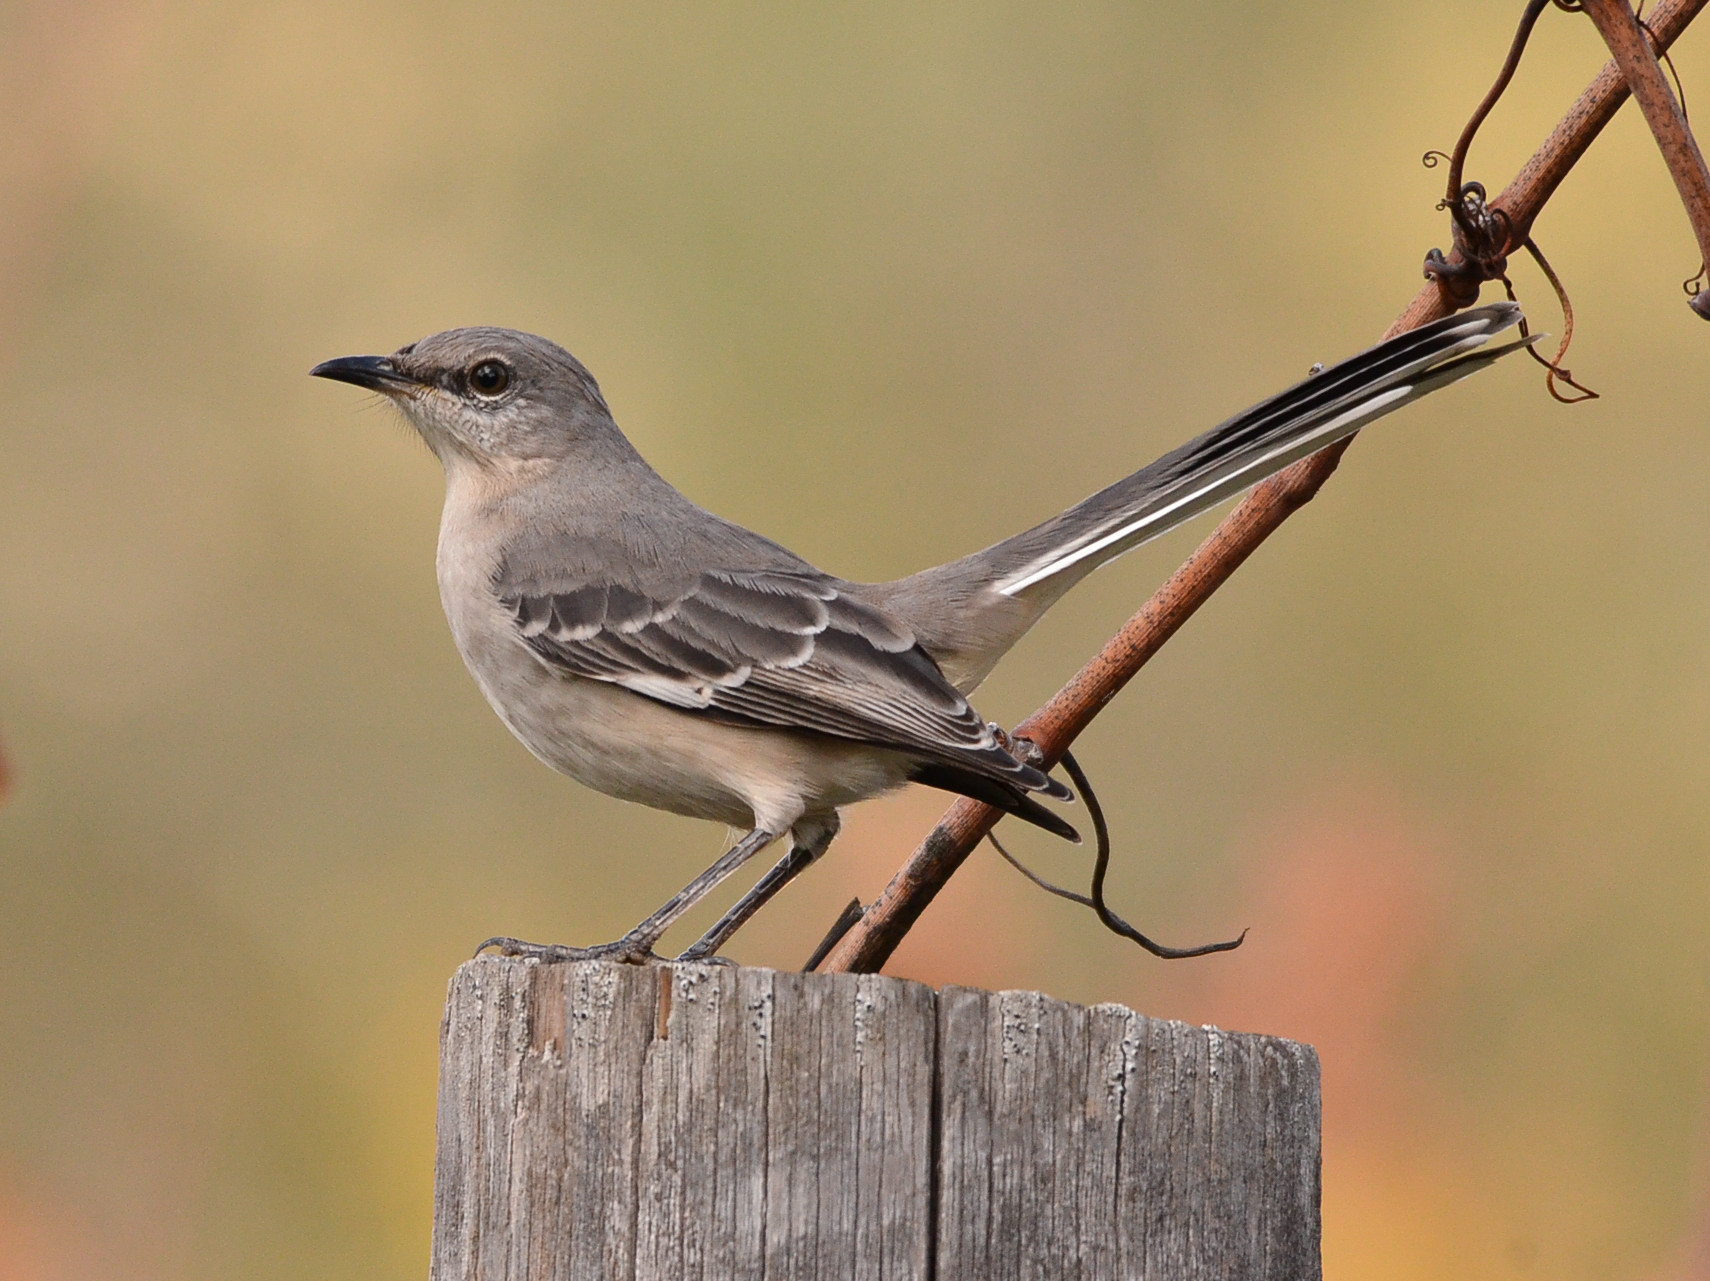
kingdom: Animalia
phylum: Chordata
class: Aves
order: Passeriformes
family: Mimidae
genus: Mimus
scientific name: Mimus polyglottos
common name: Northern mockingbird
